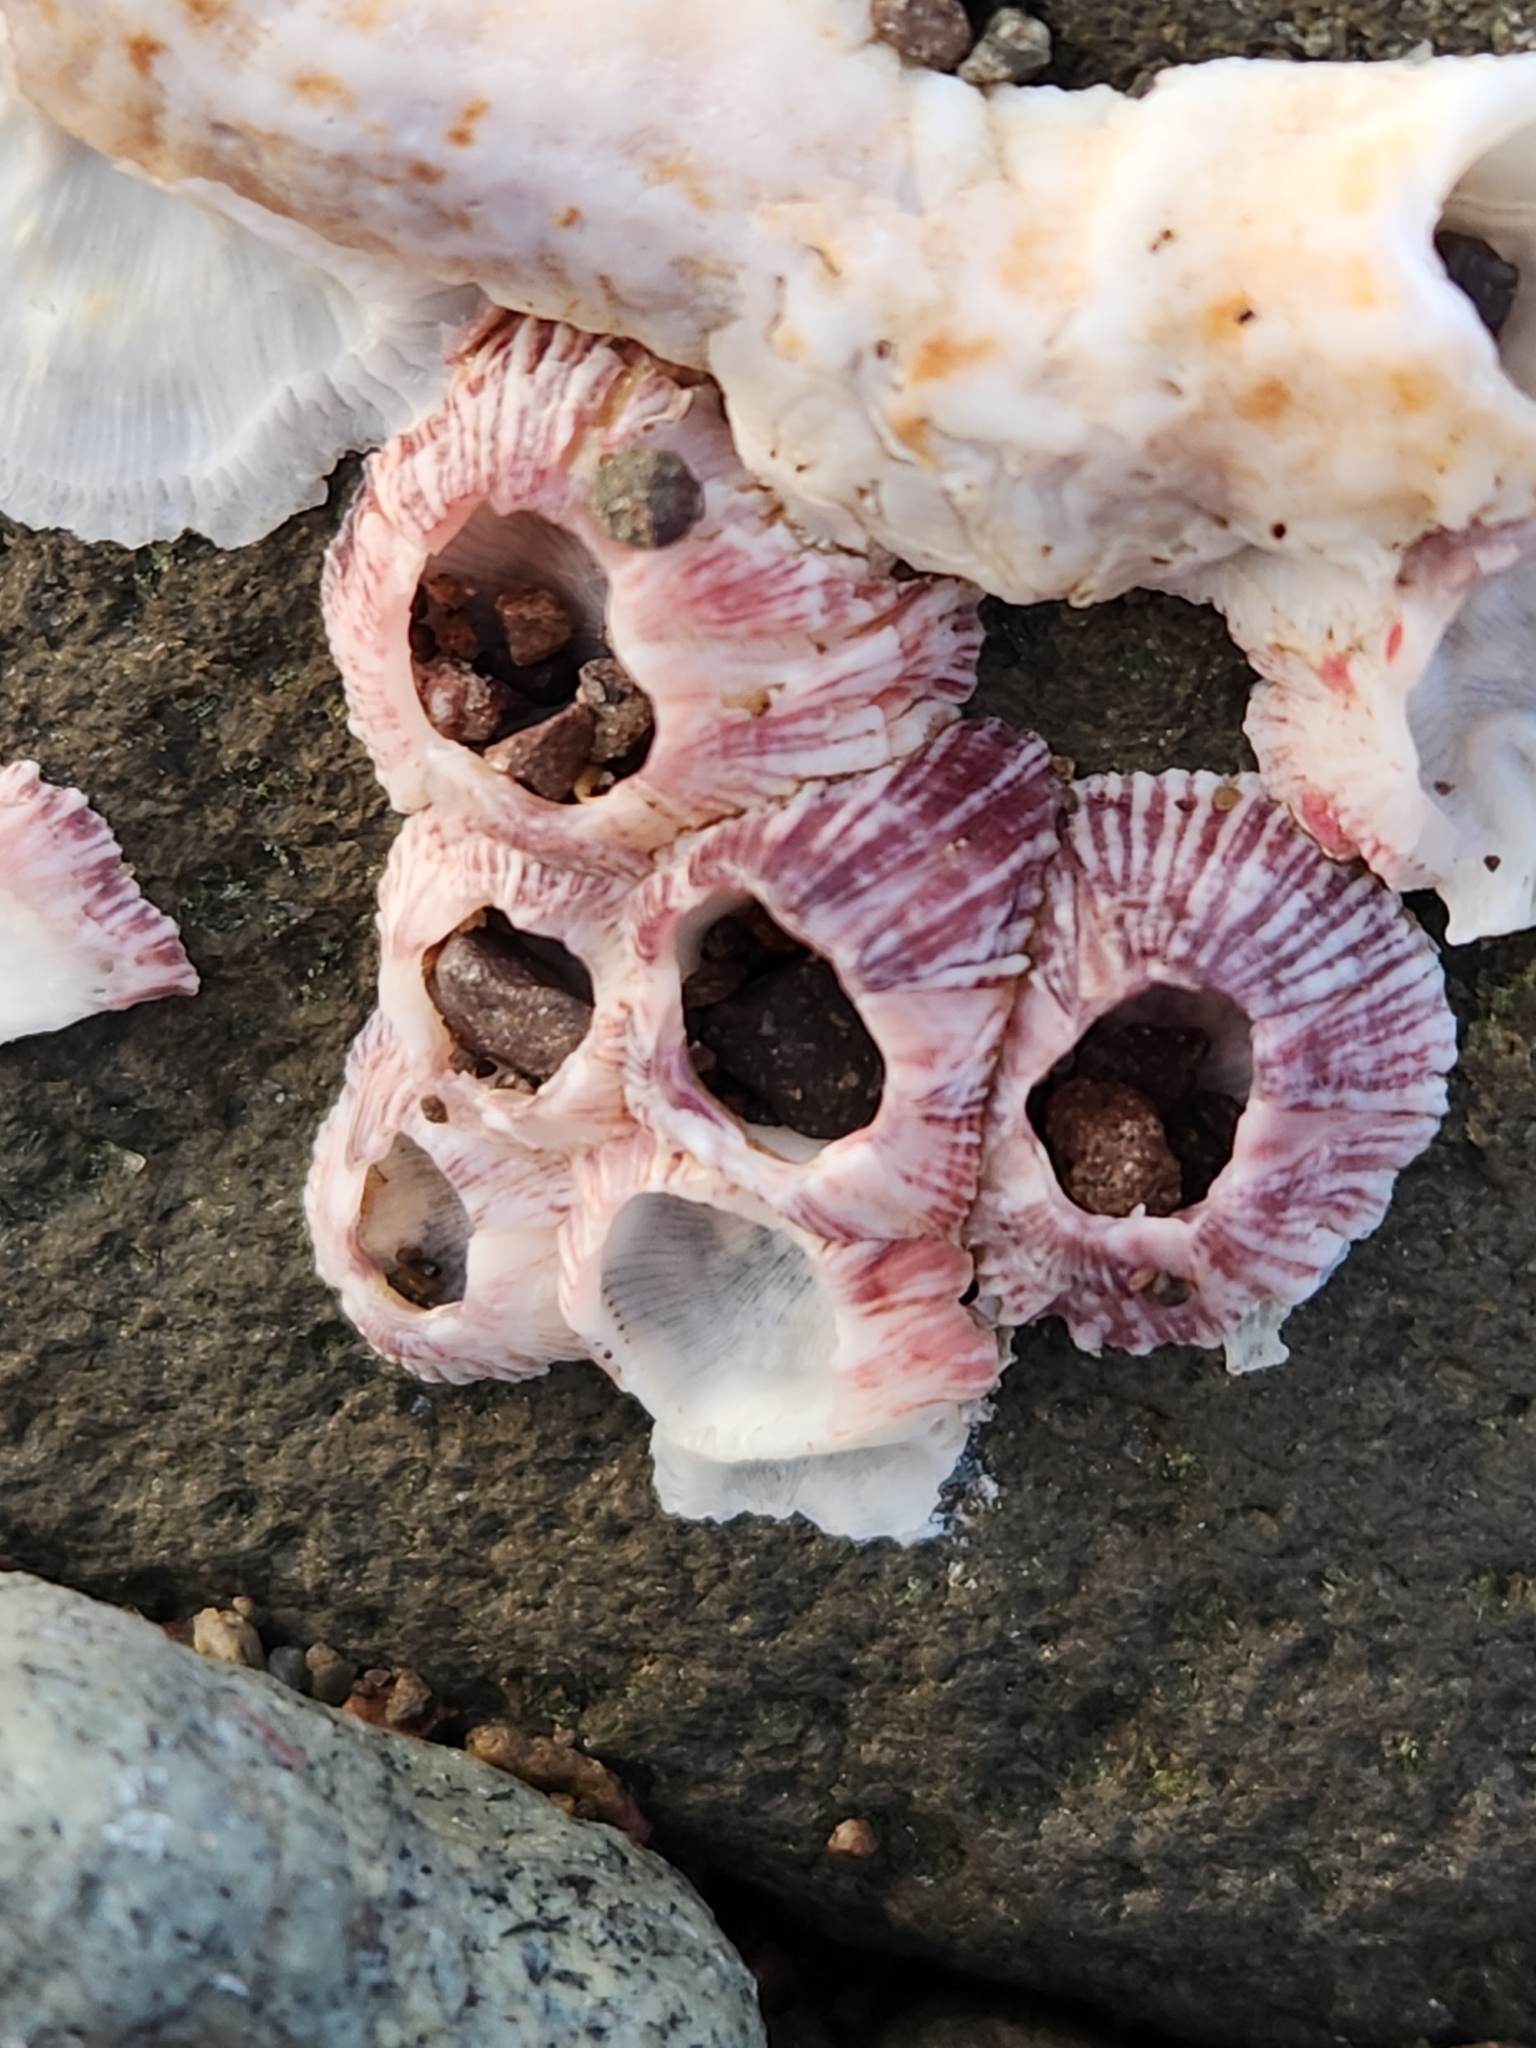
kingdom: Animalia
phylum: Arthropoda
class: Maxillopoda
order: Sessilia
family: Balanidae
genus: Balanus
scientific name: Balanus trigonus
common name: Triangle barnacle
